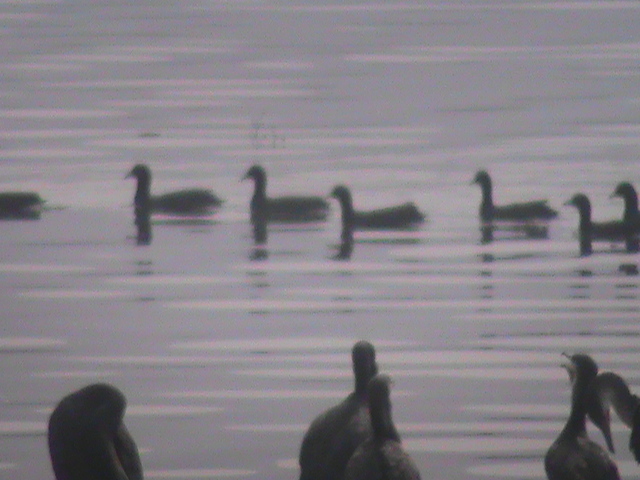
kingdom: Animalia
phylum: Chordata
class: Aves
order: Gruiformes
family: Rallidae
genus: Fulica
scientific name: Fulica atra
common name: Eurasian coot
